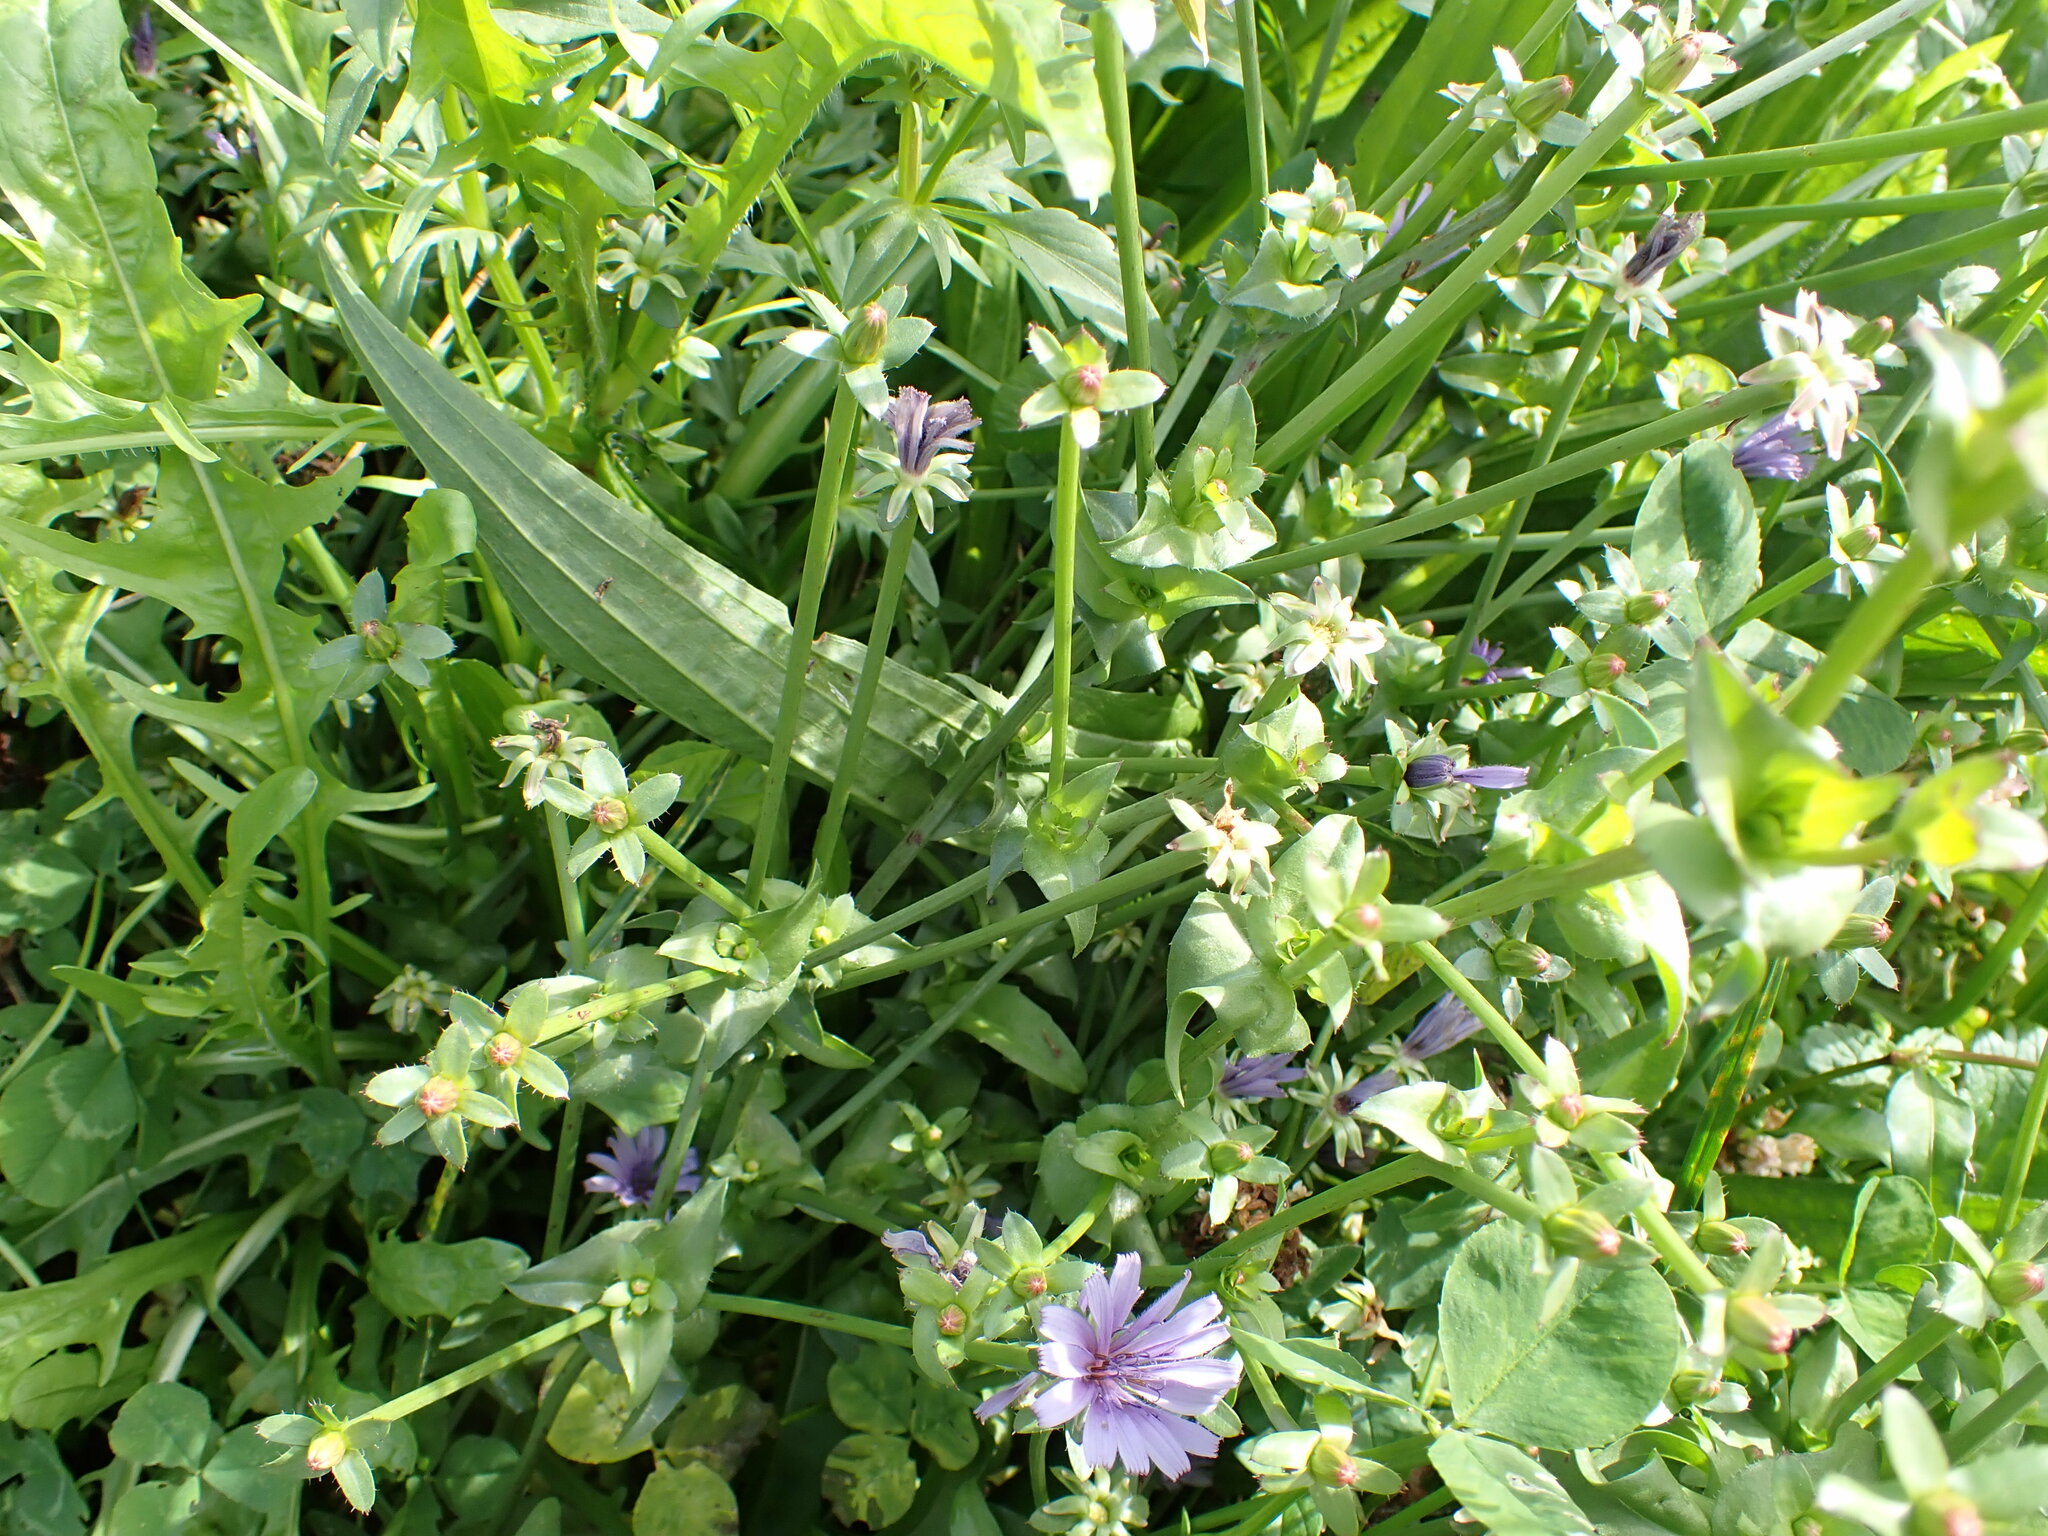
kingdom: Plantae
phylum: Tracheophyta
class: Magnoliopsida
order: Asterales
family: Asteraceae
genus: Cichorium
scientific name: Cichorium intybus
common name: Chicory
